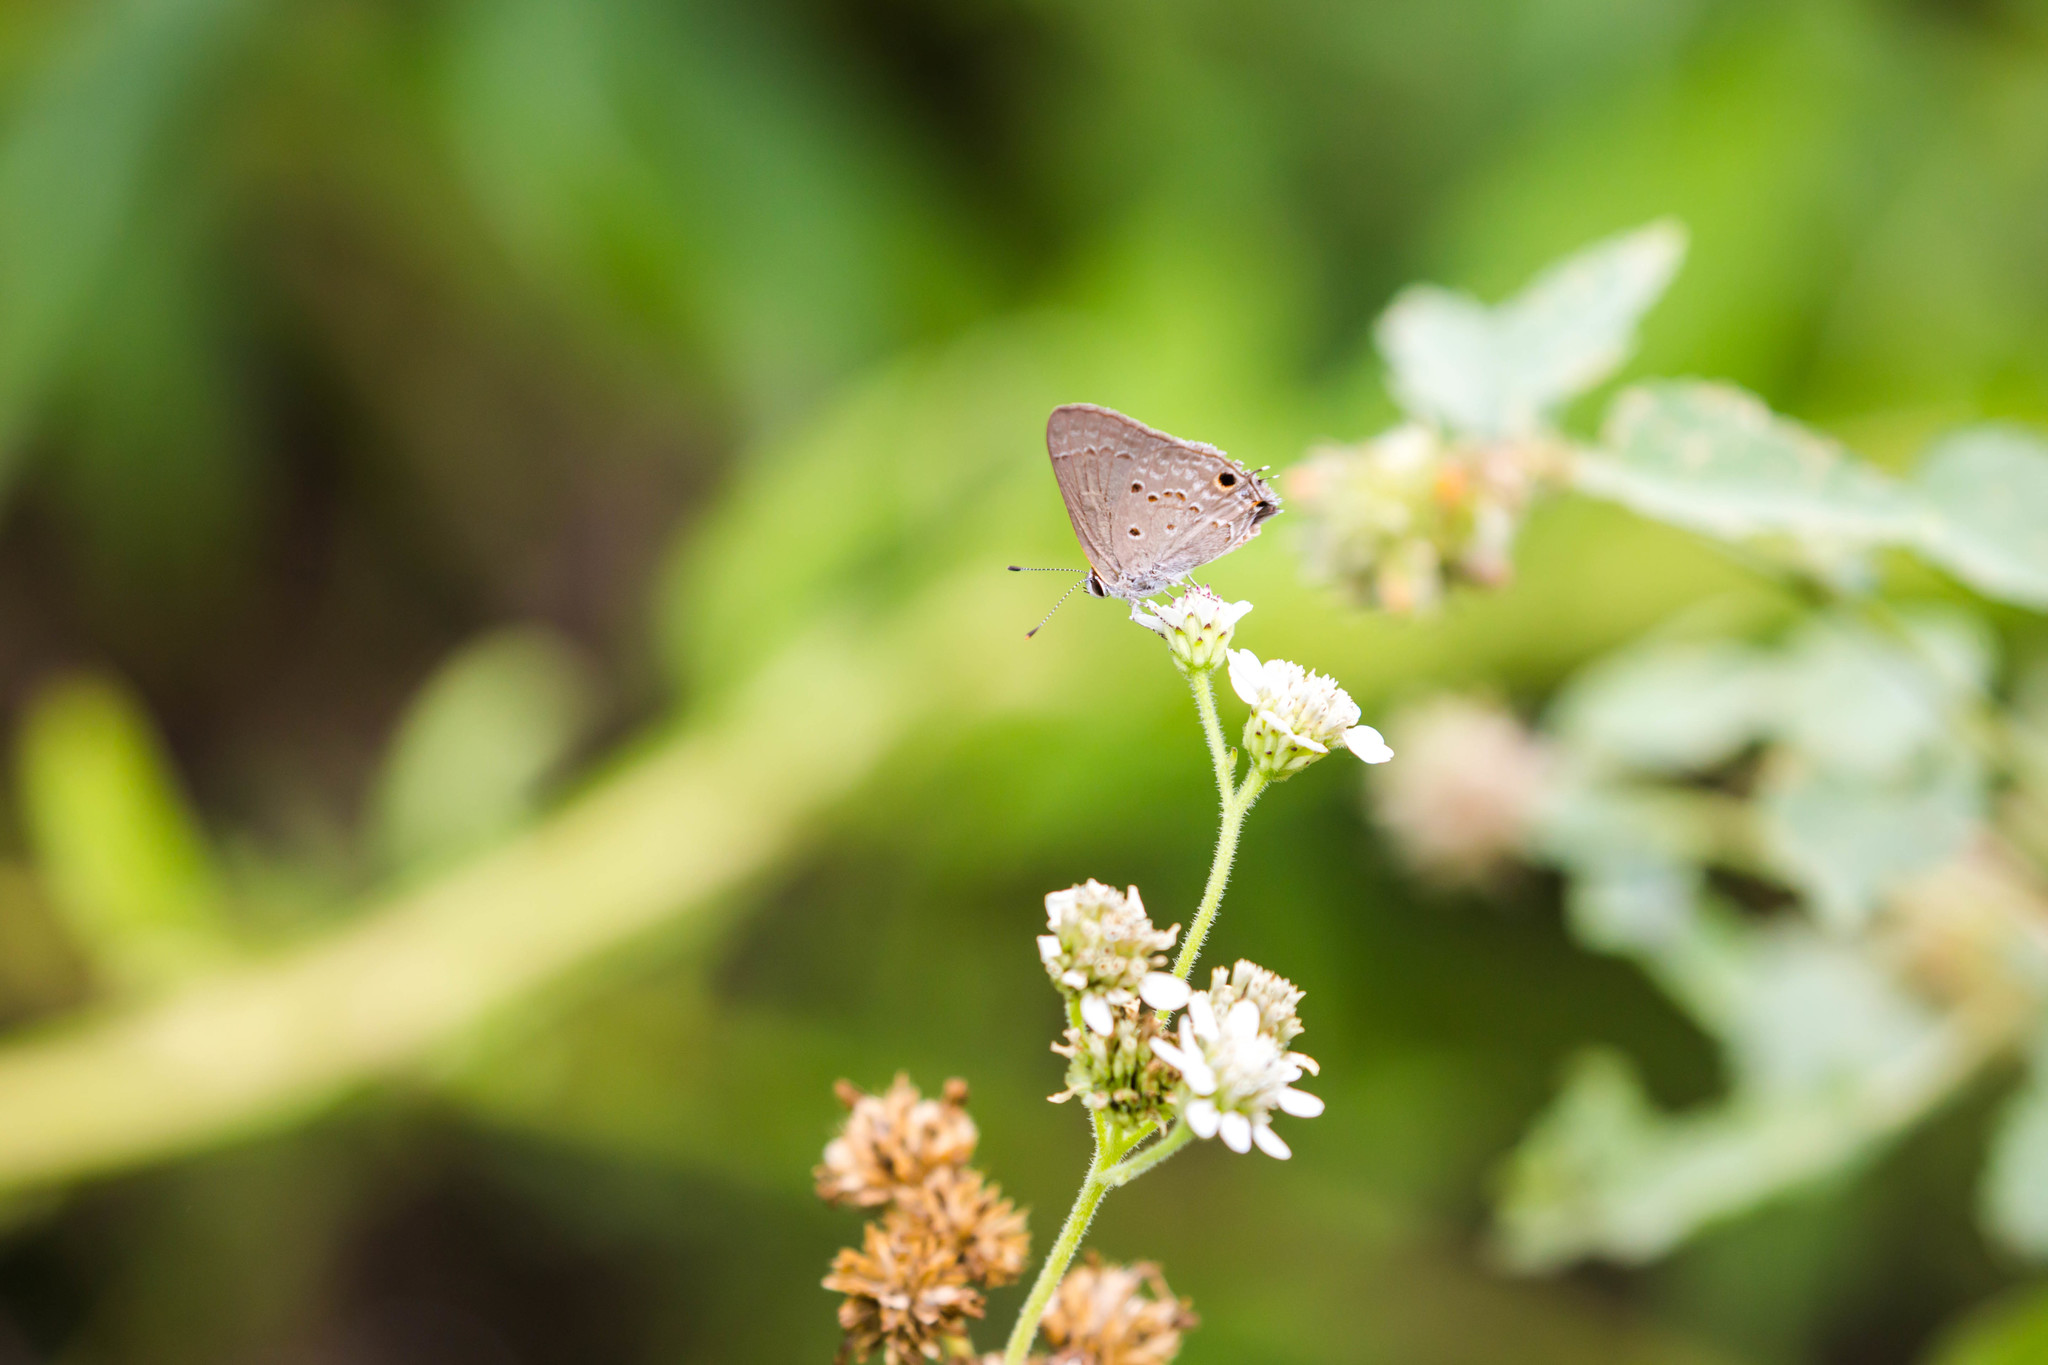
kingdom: Animalia
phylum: Arthropoda
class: Insecta
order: Lepidoptera
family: Lycaenidae
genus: Callicista
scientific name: Callicista columella
